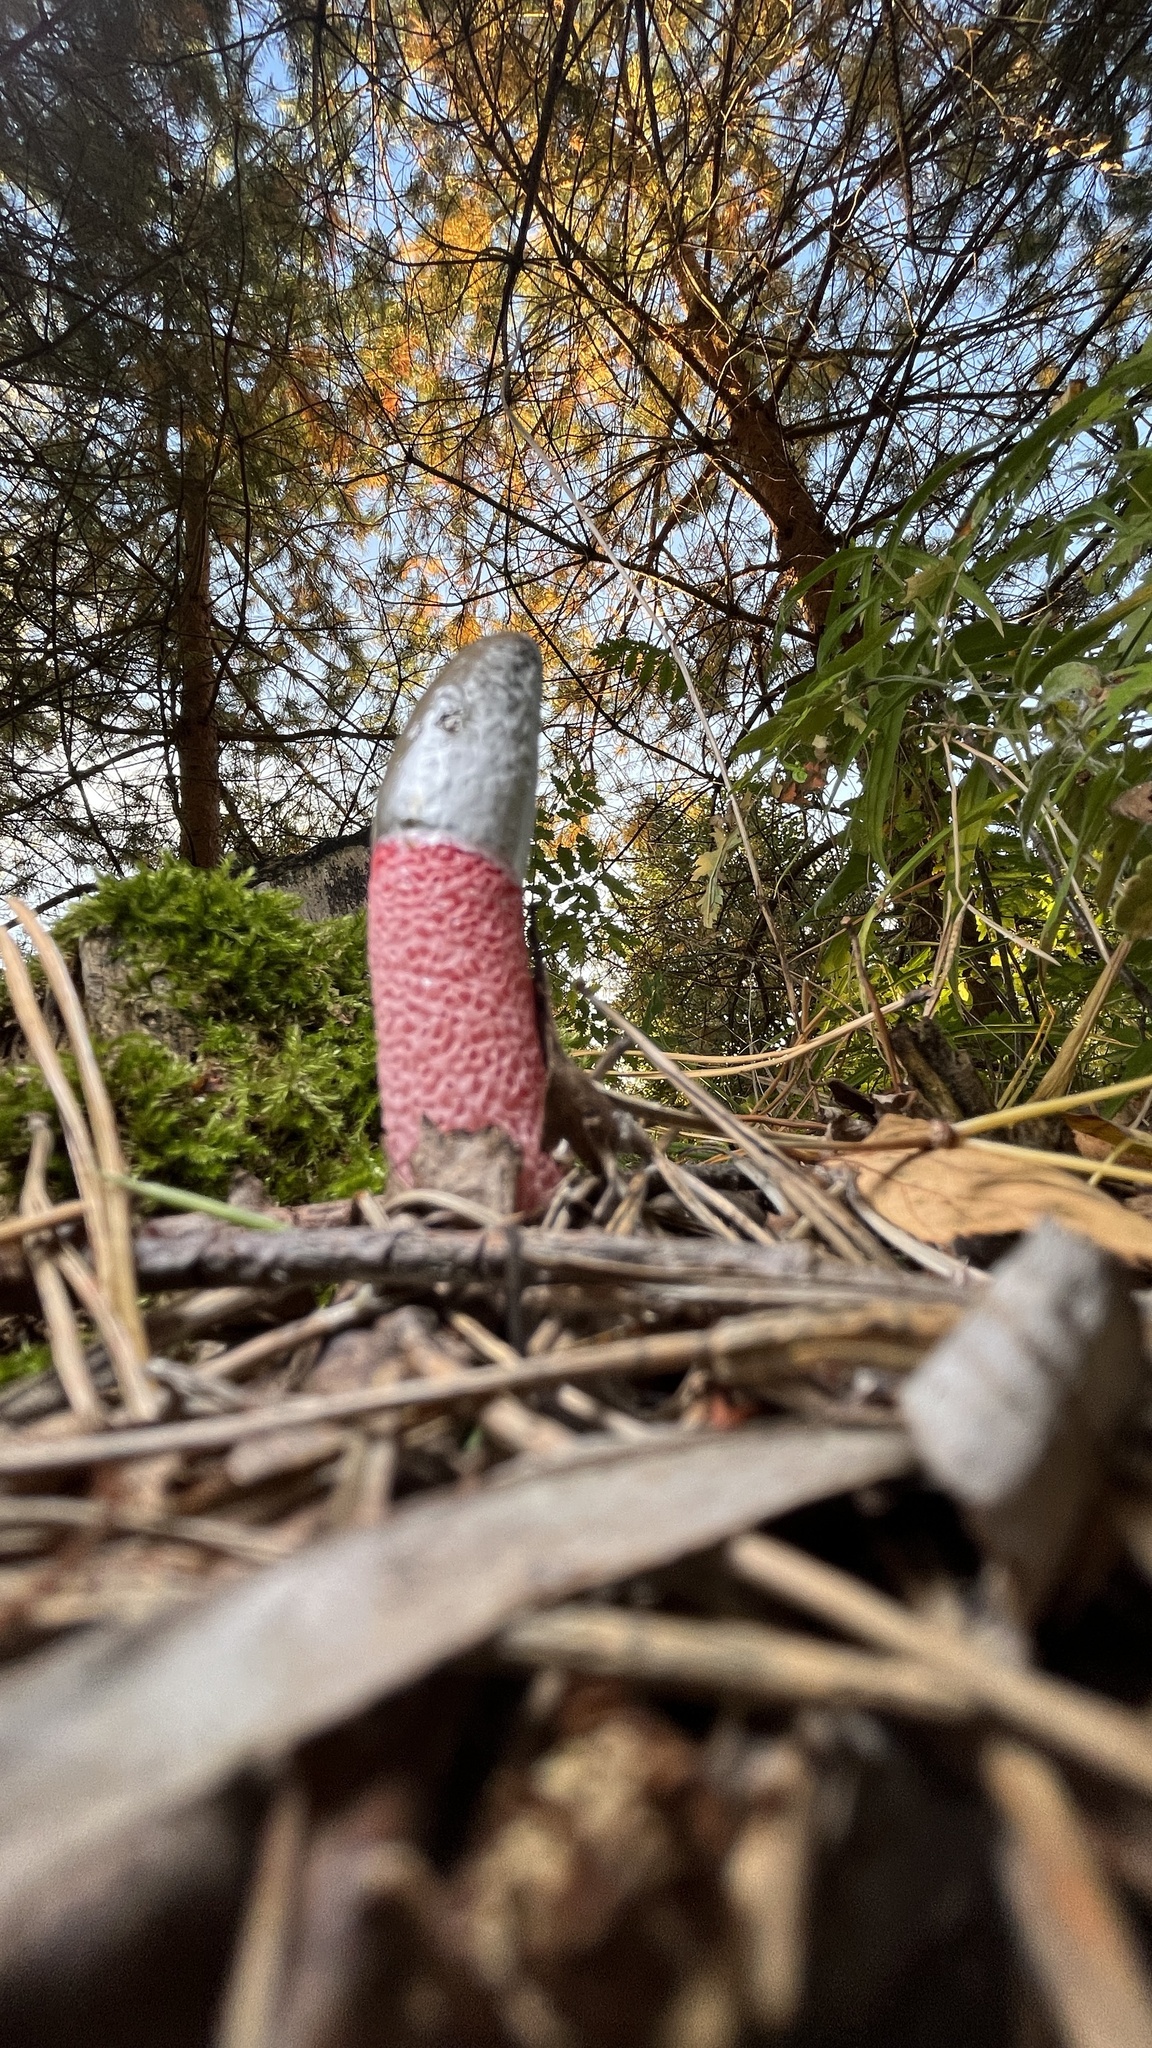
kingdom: Fungi
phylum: Basidiomycota
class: Agaricomycetes
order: Phallales
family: Phallaceae
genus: Mutinus
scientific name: Mutinus ravenelii
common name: Red stinkhorn
